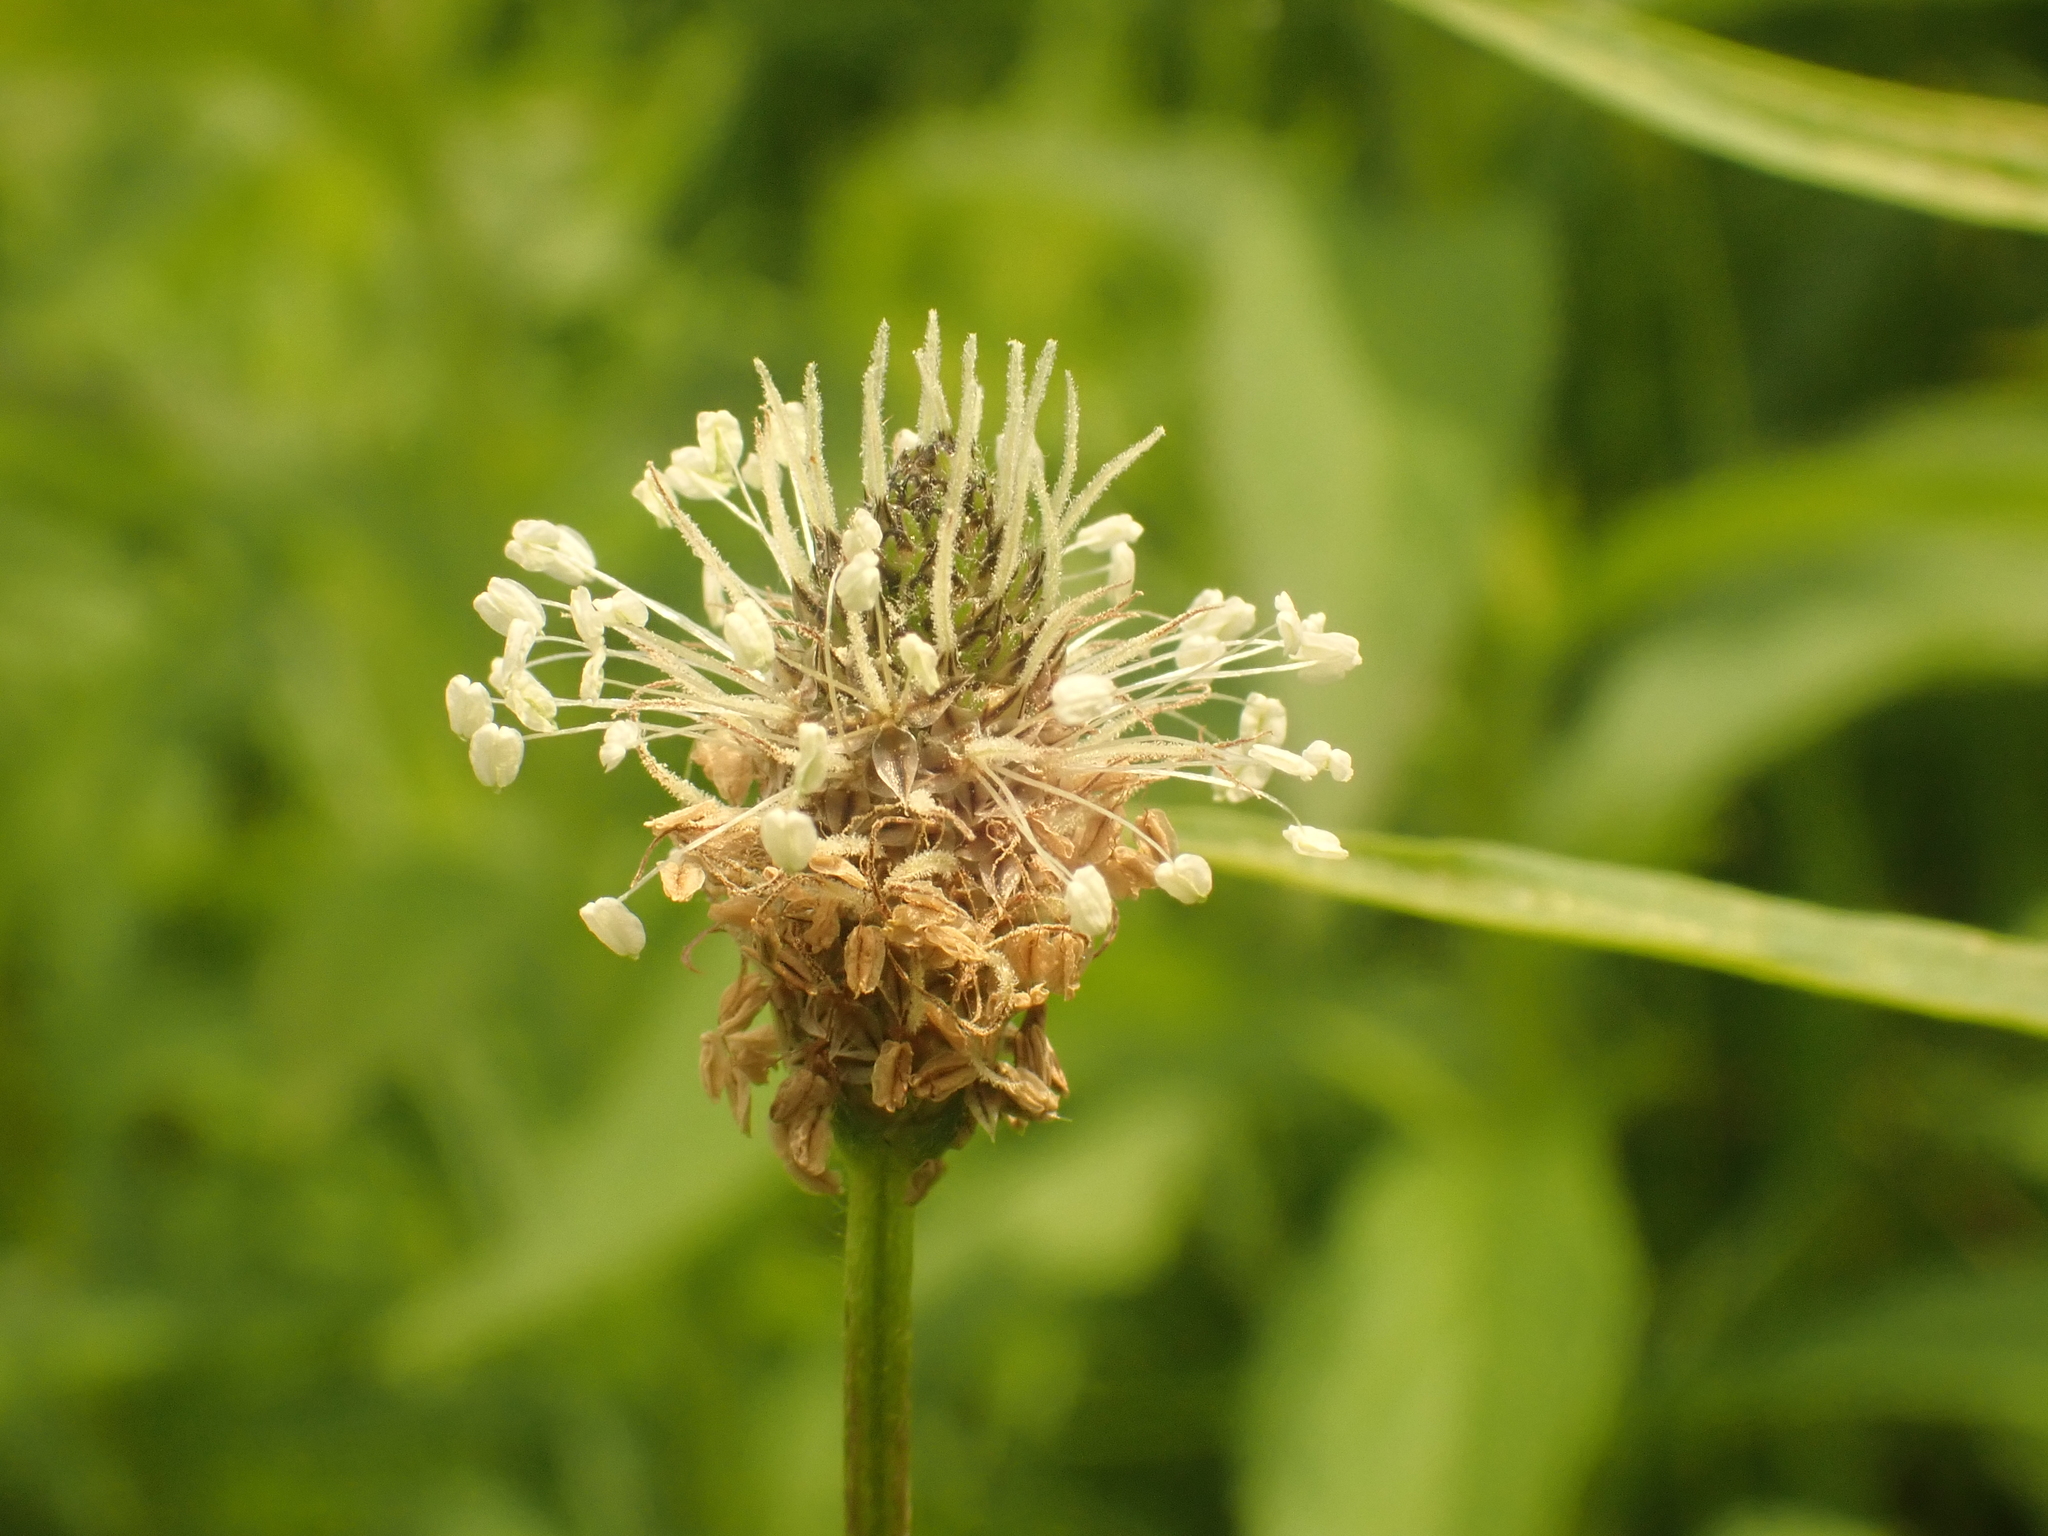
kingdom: Plantae
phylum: Tracheophyta
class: Magnoliopsida
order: Lamiales
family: Plantaginaceae
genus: Plantago
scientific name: Plantago lanceolata
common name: Ribwort plantain
